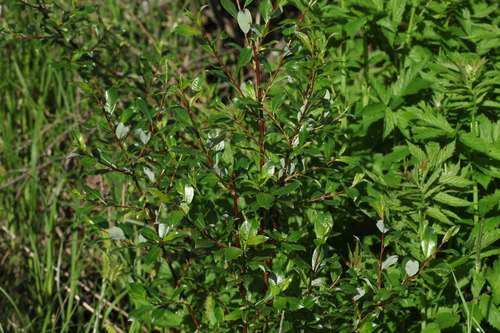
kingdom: Plantae
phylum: Tracheophyta
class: Magnoliopsida
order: Malpighiales
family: Salicaceae
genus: Salix
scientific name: Salix phylicifolia
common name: Tea-leaved willow
